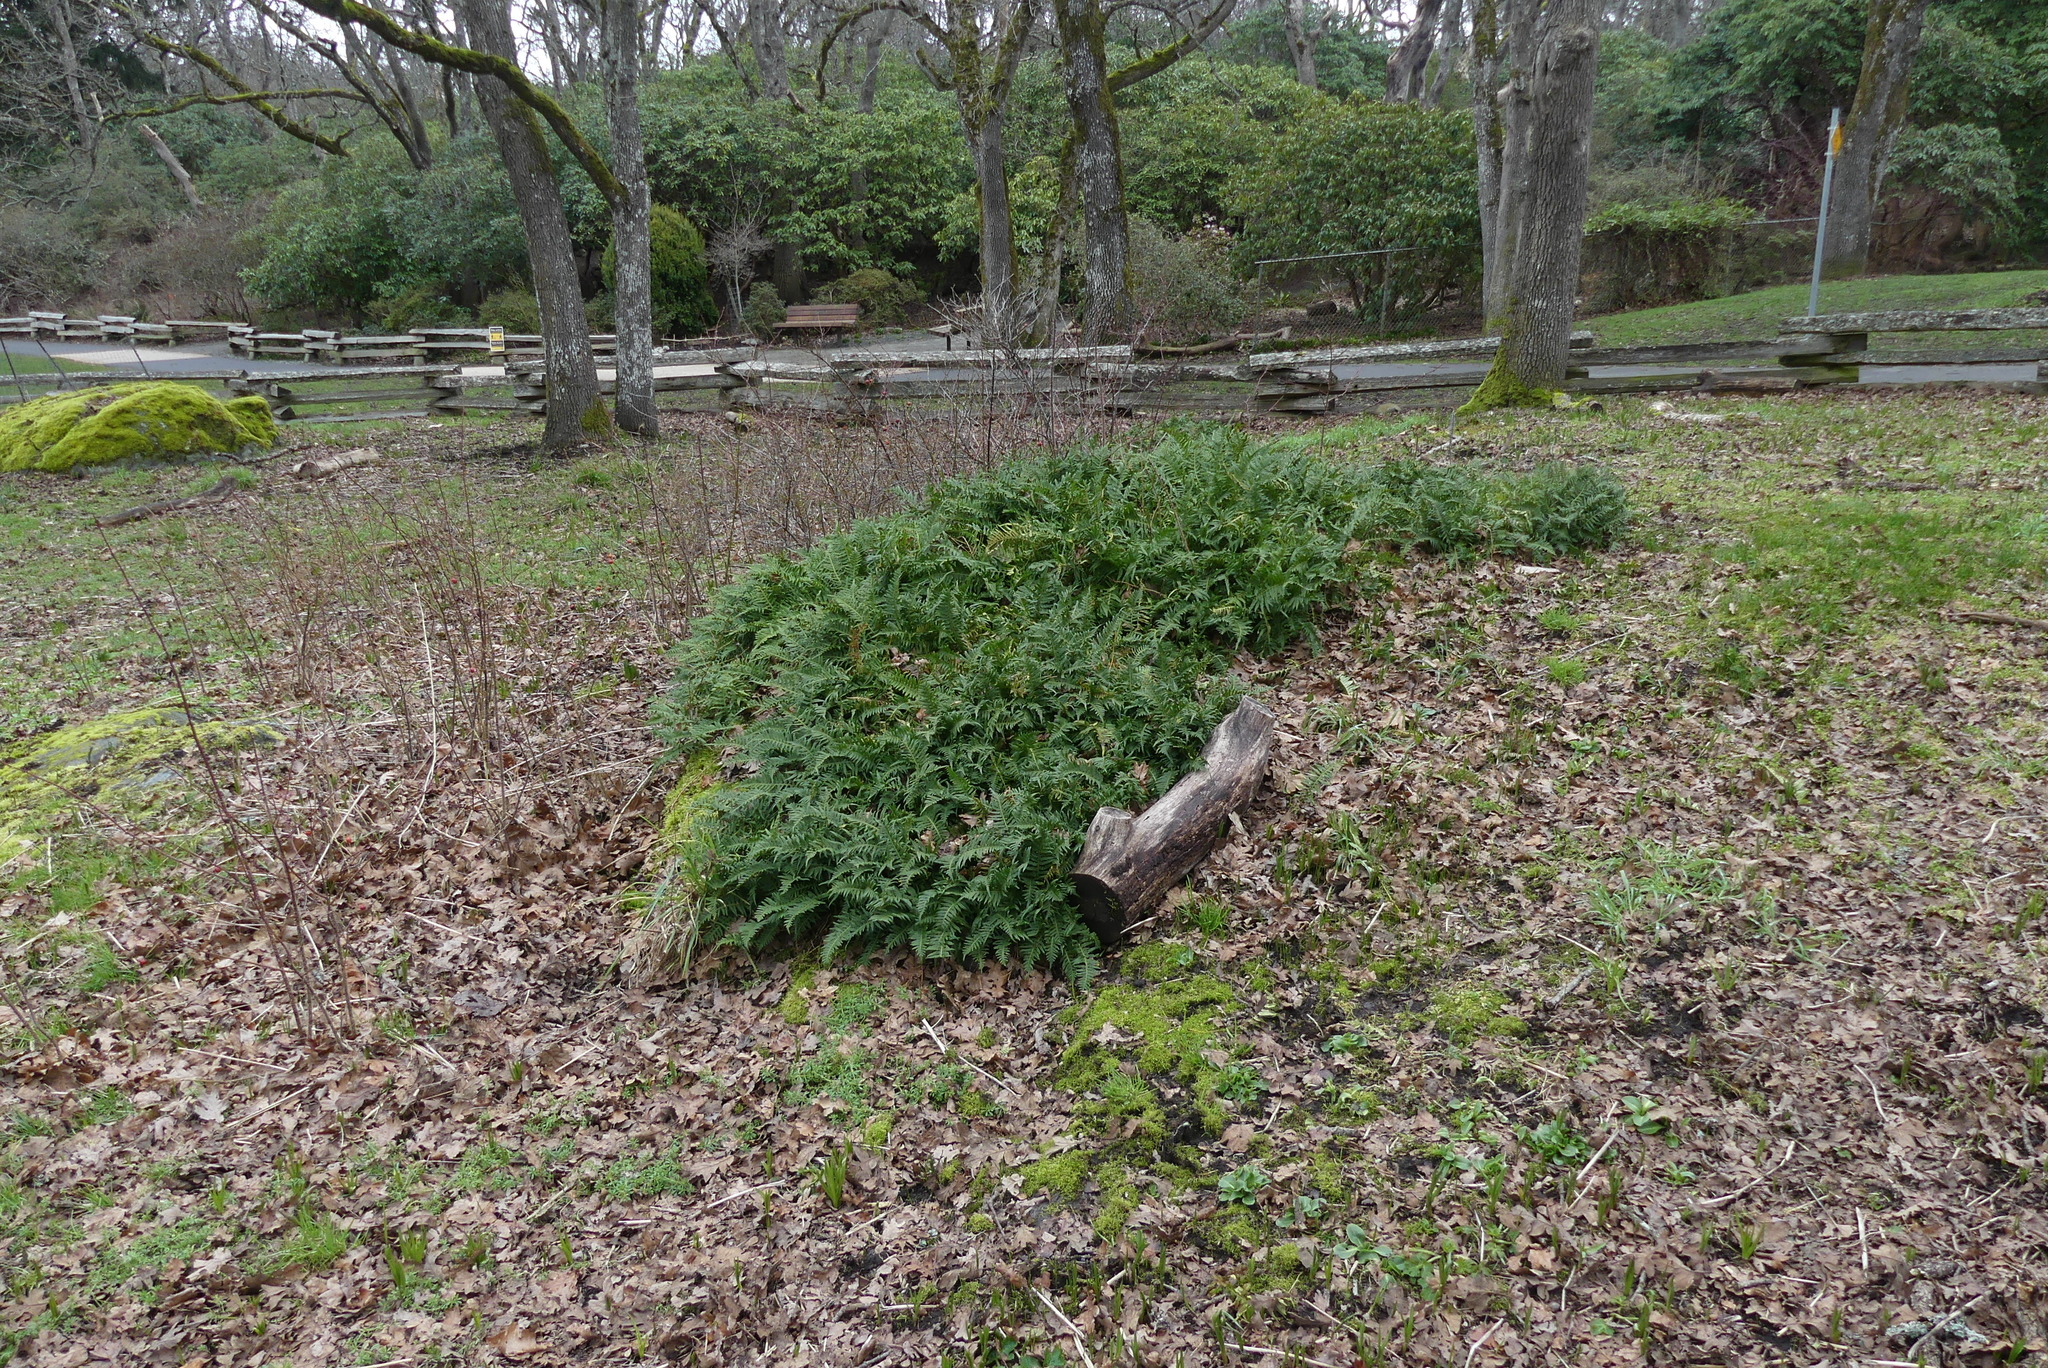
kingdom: Plantae
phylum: Tracheophyta
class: Polypodiopsida
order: Polypodiales
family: Polypodiaceae
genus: Polypodium
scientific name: Polypodium glycyrrhiza
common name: Licorice fern
